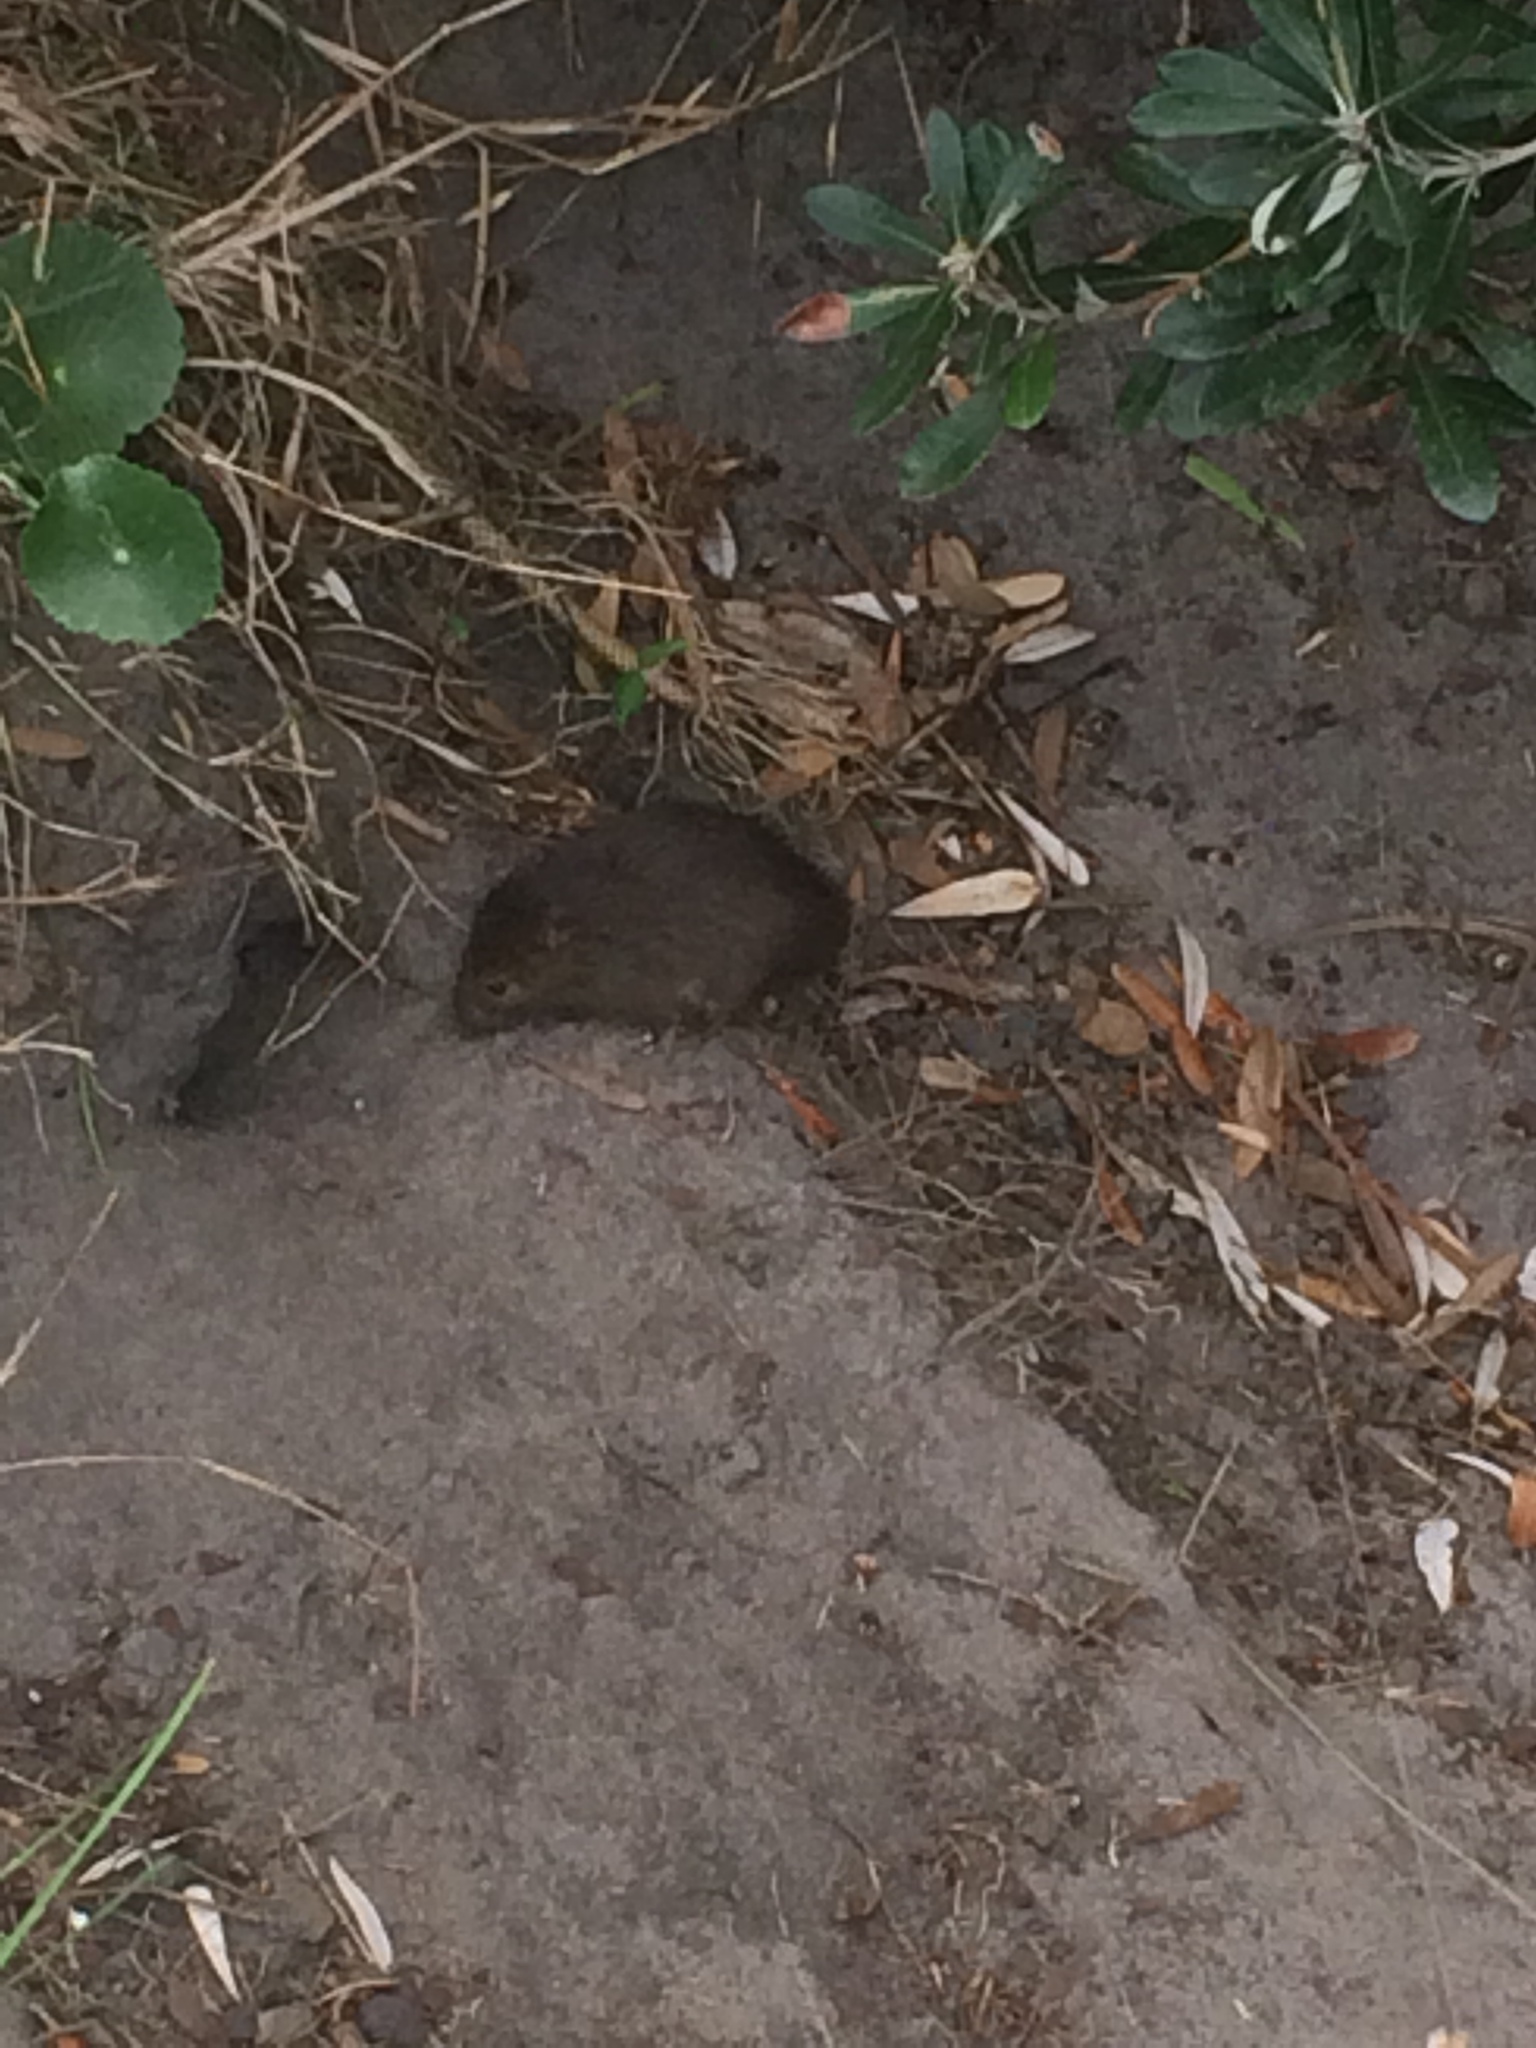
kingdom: Animalia
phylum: Chordata
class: Mammalia
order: Rodentia
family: Muridae
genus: Rattus
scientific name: Rattus lutreolus
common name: Australian swamp rat
